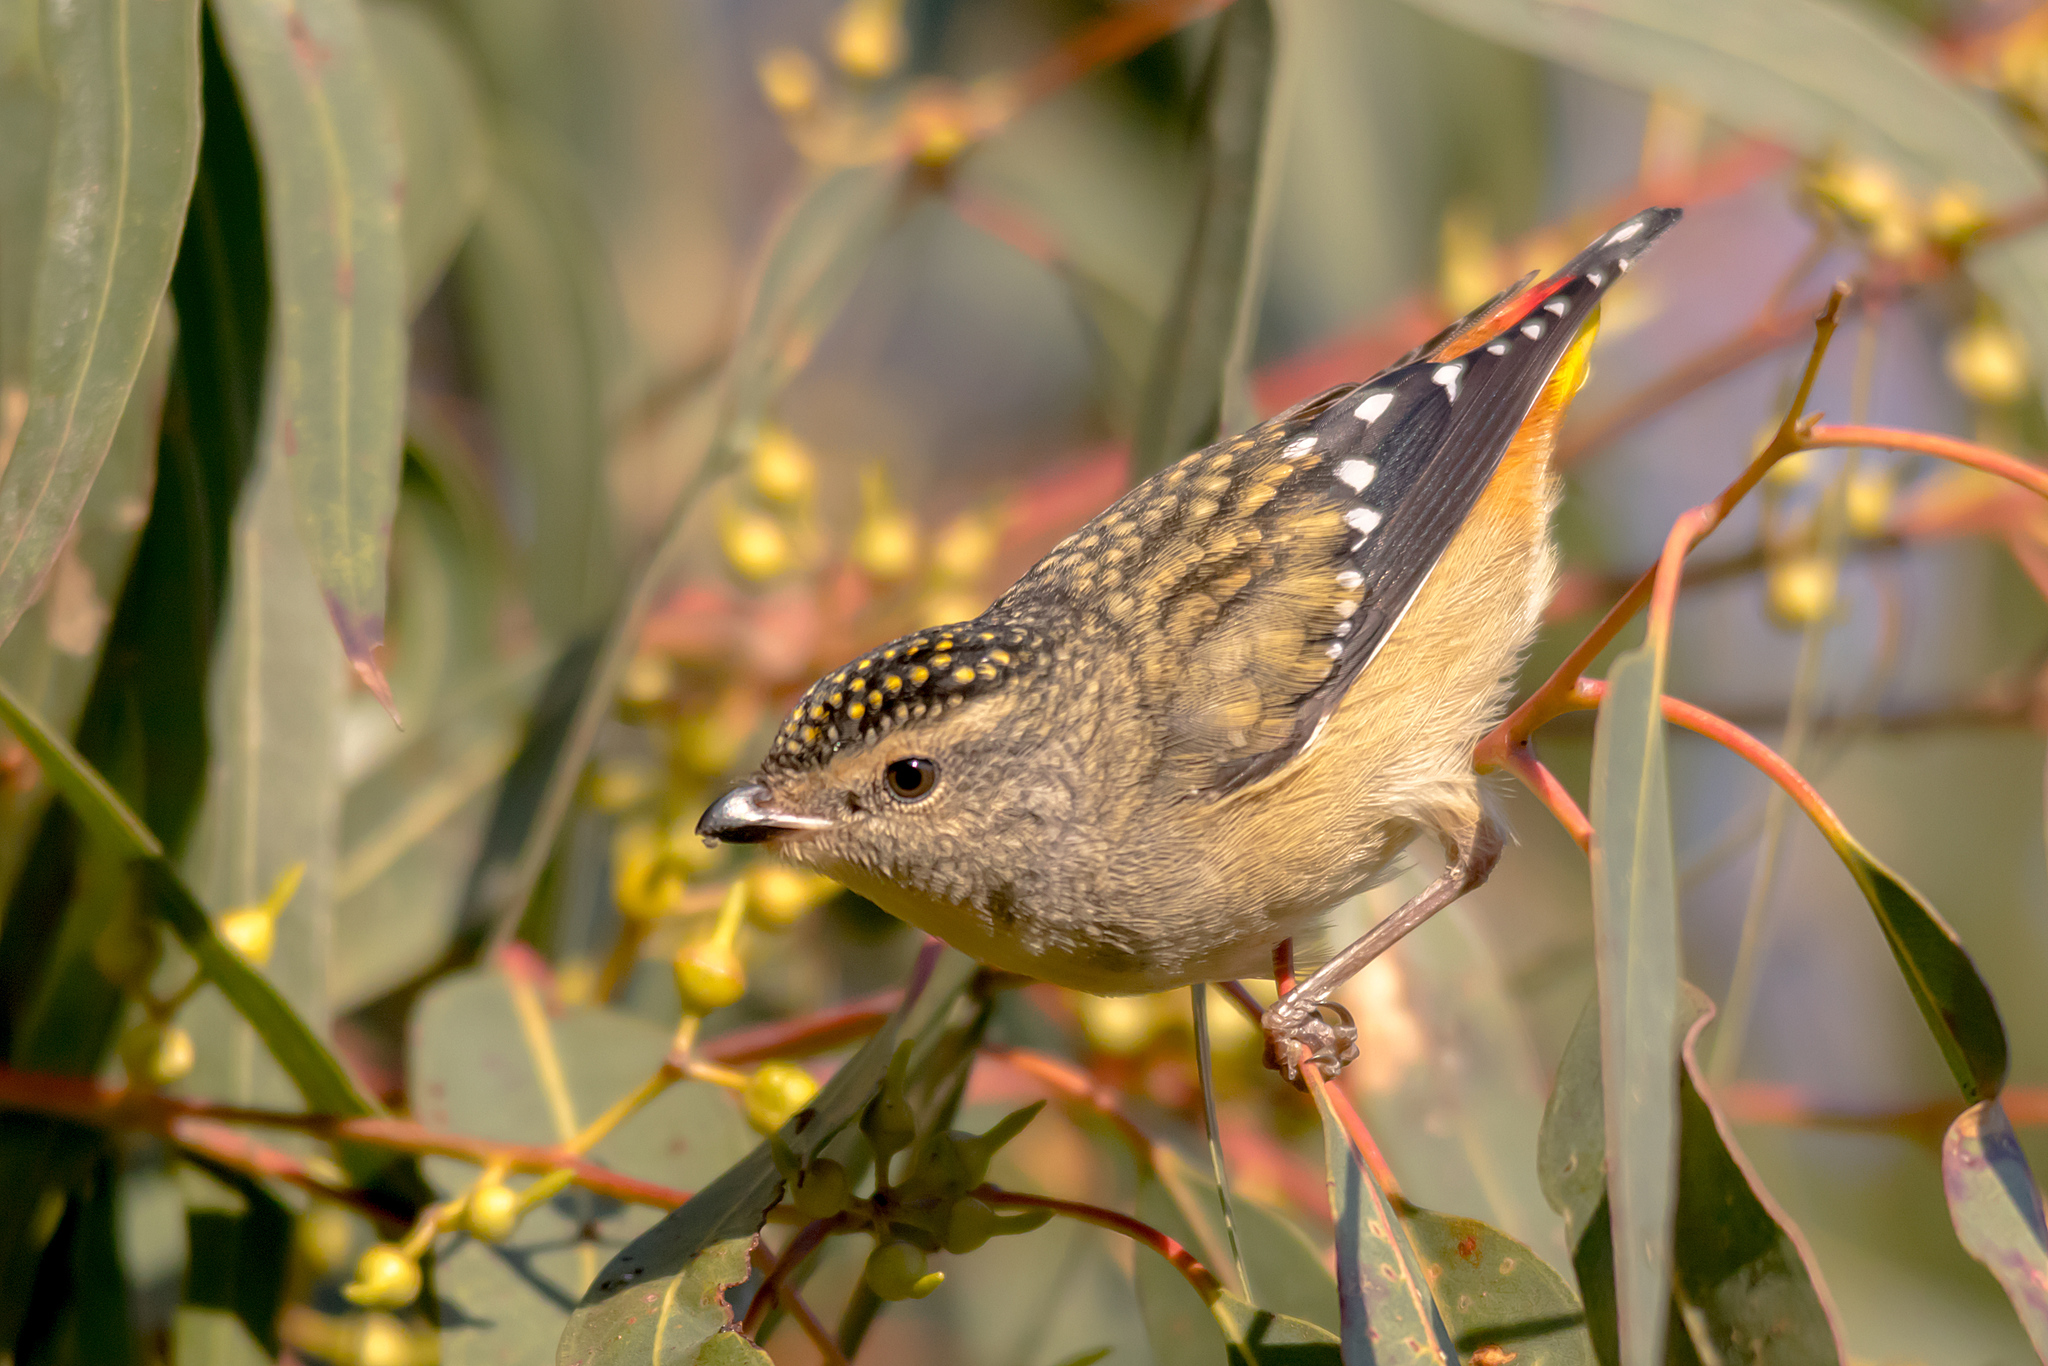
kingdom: Animalia
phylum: Chordata
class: Aves
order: Passeriformes
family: Pardalotidae
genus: Pardalotus
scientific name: Pardalotus punctatus
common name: Spotted pardalote
